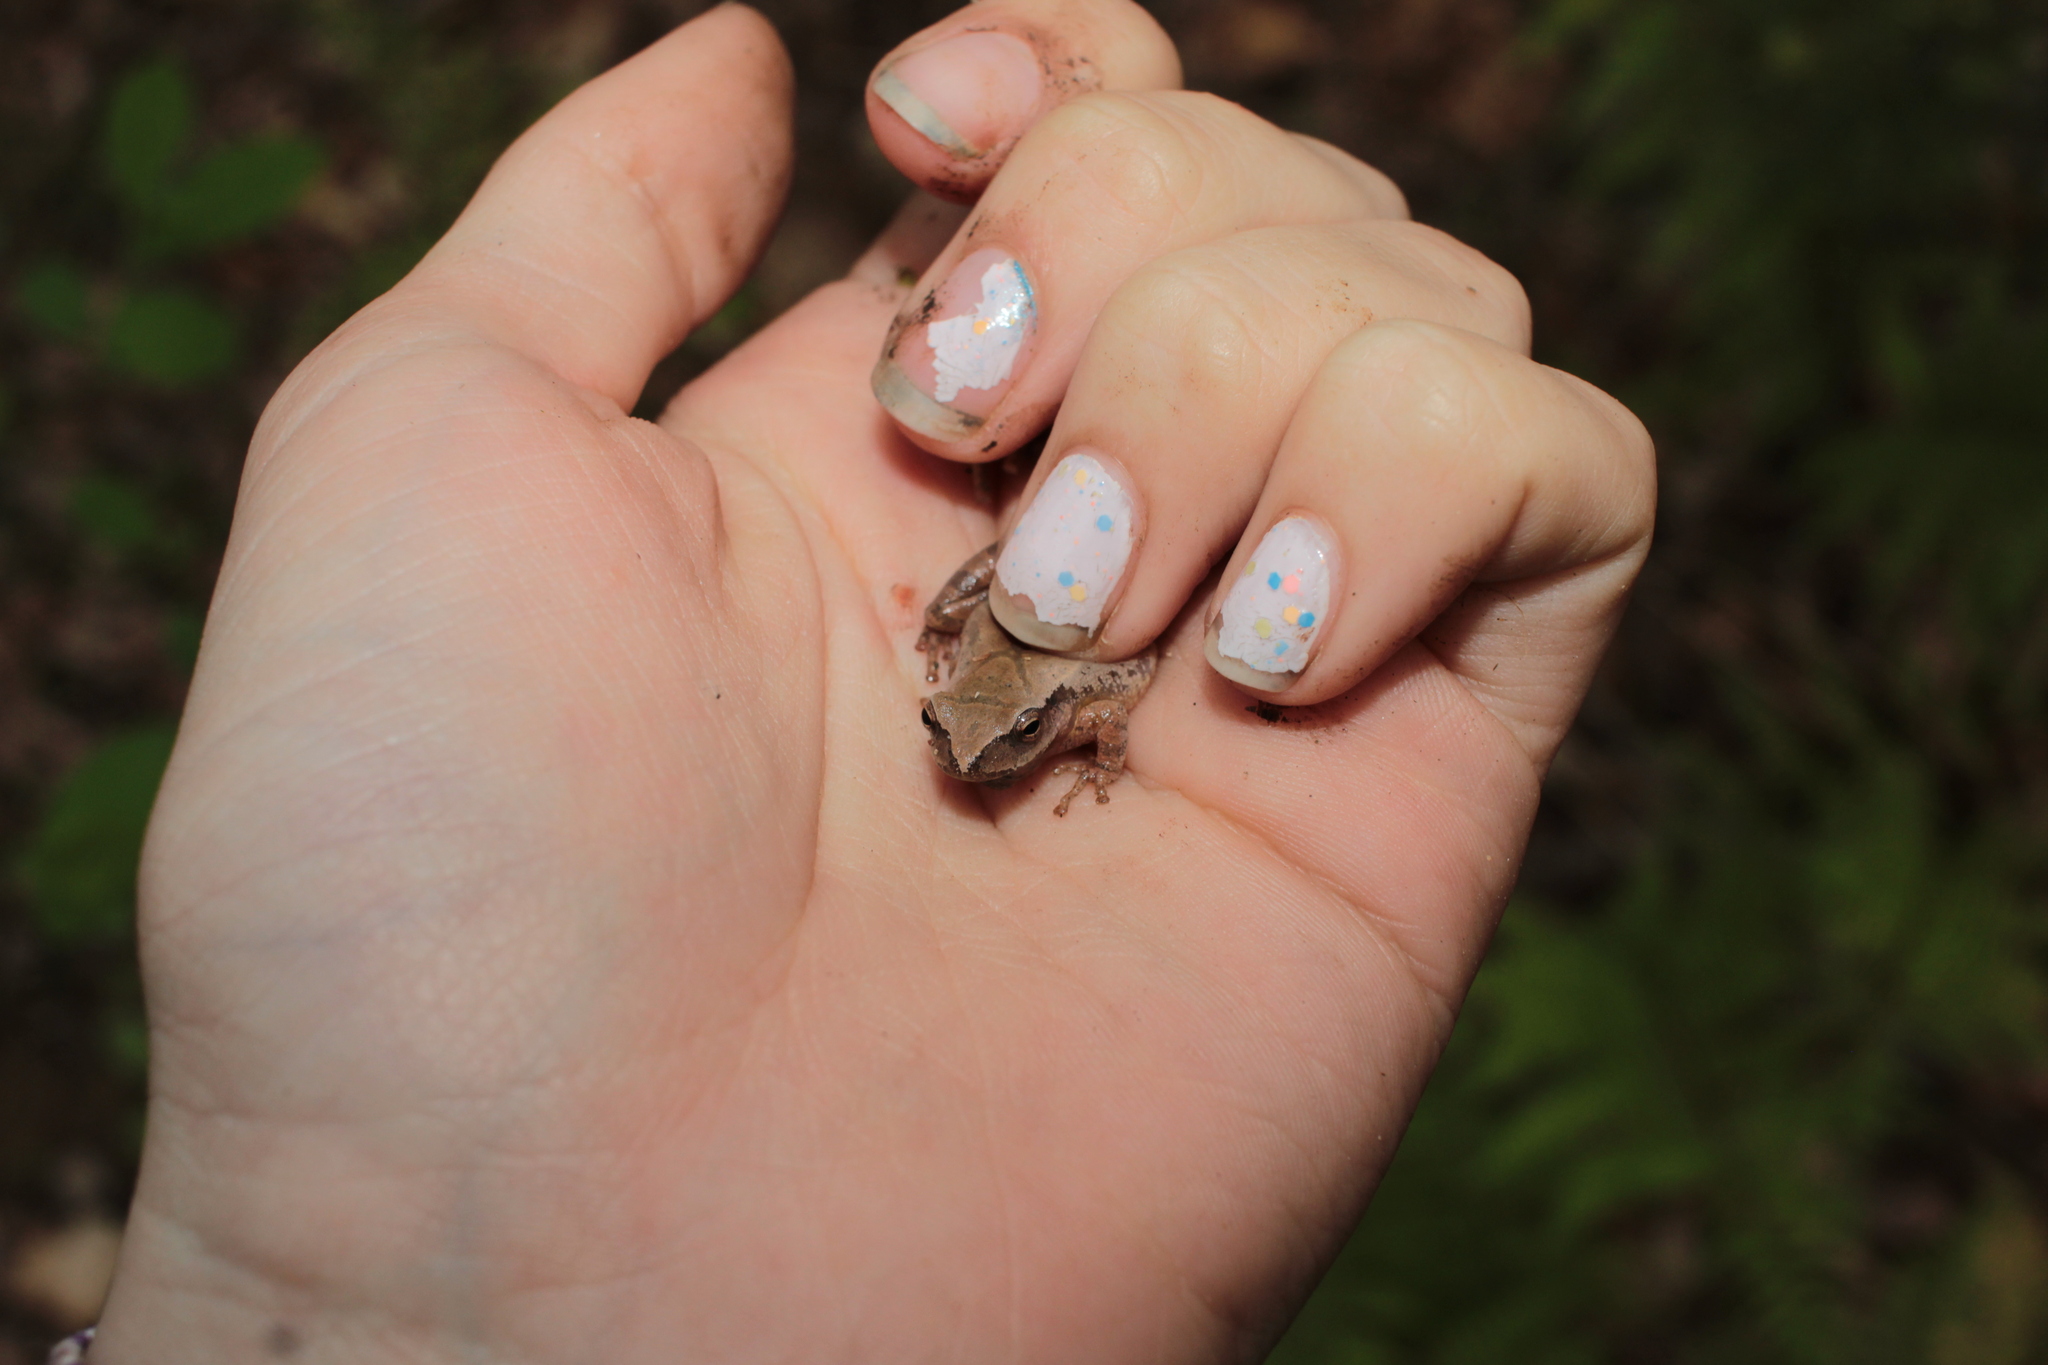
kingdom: Animalia
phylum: Chordata
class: Amphibia
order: Anura
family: Hylidae
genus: Pseudacris
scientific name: Pseudacris crucifer
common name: Spring peeper
